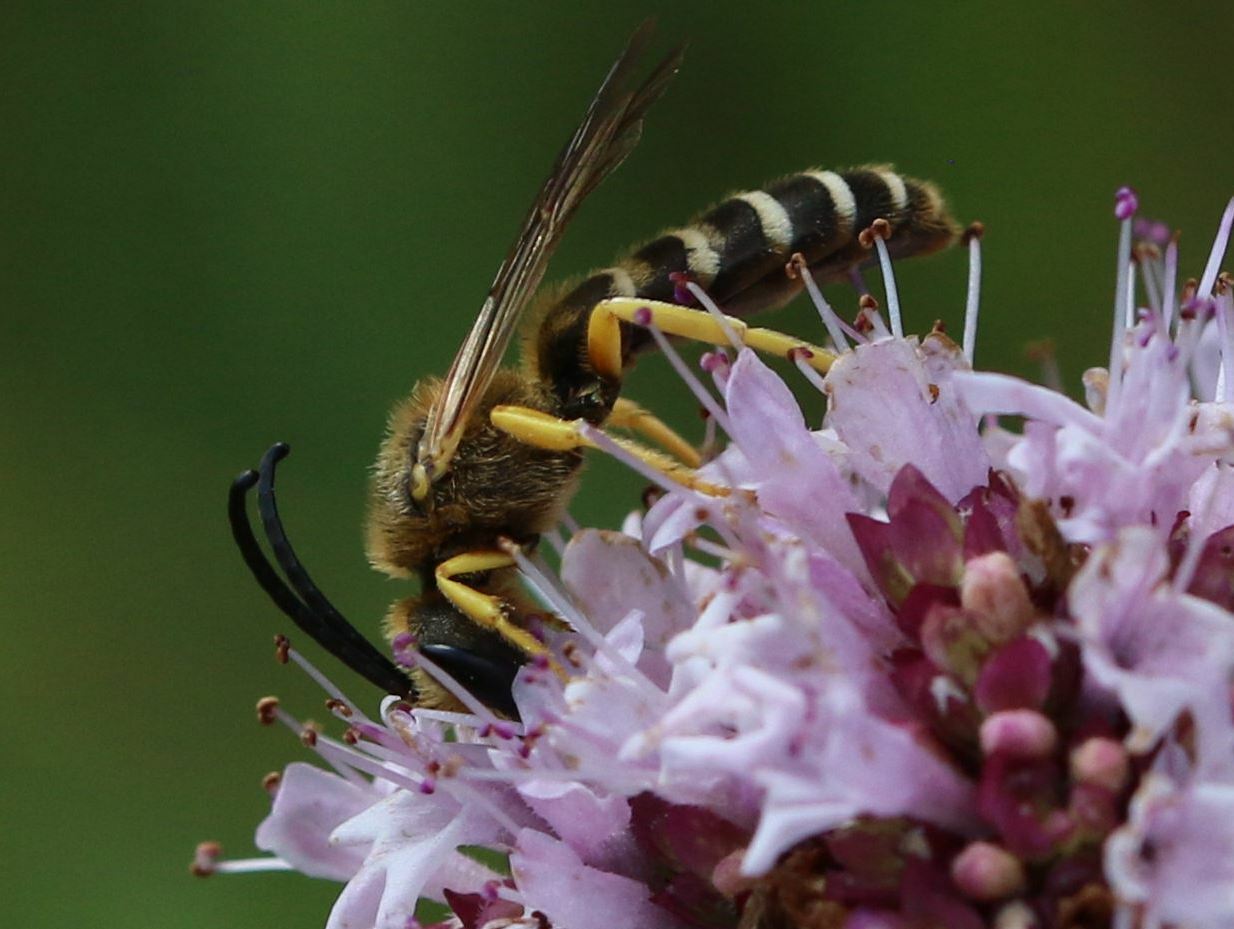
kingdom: Animalia
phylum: Arthropoda
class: Insecta
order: Hymenoptera
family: Halictidae
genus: Halictus
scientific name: Halictus scabiosae
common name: Great banded furrow bee
